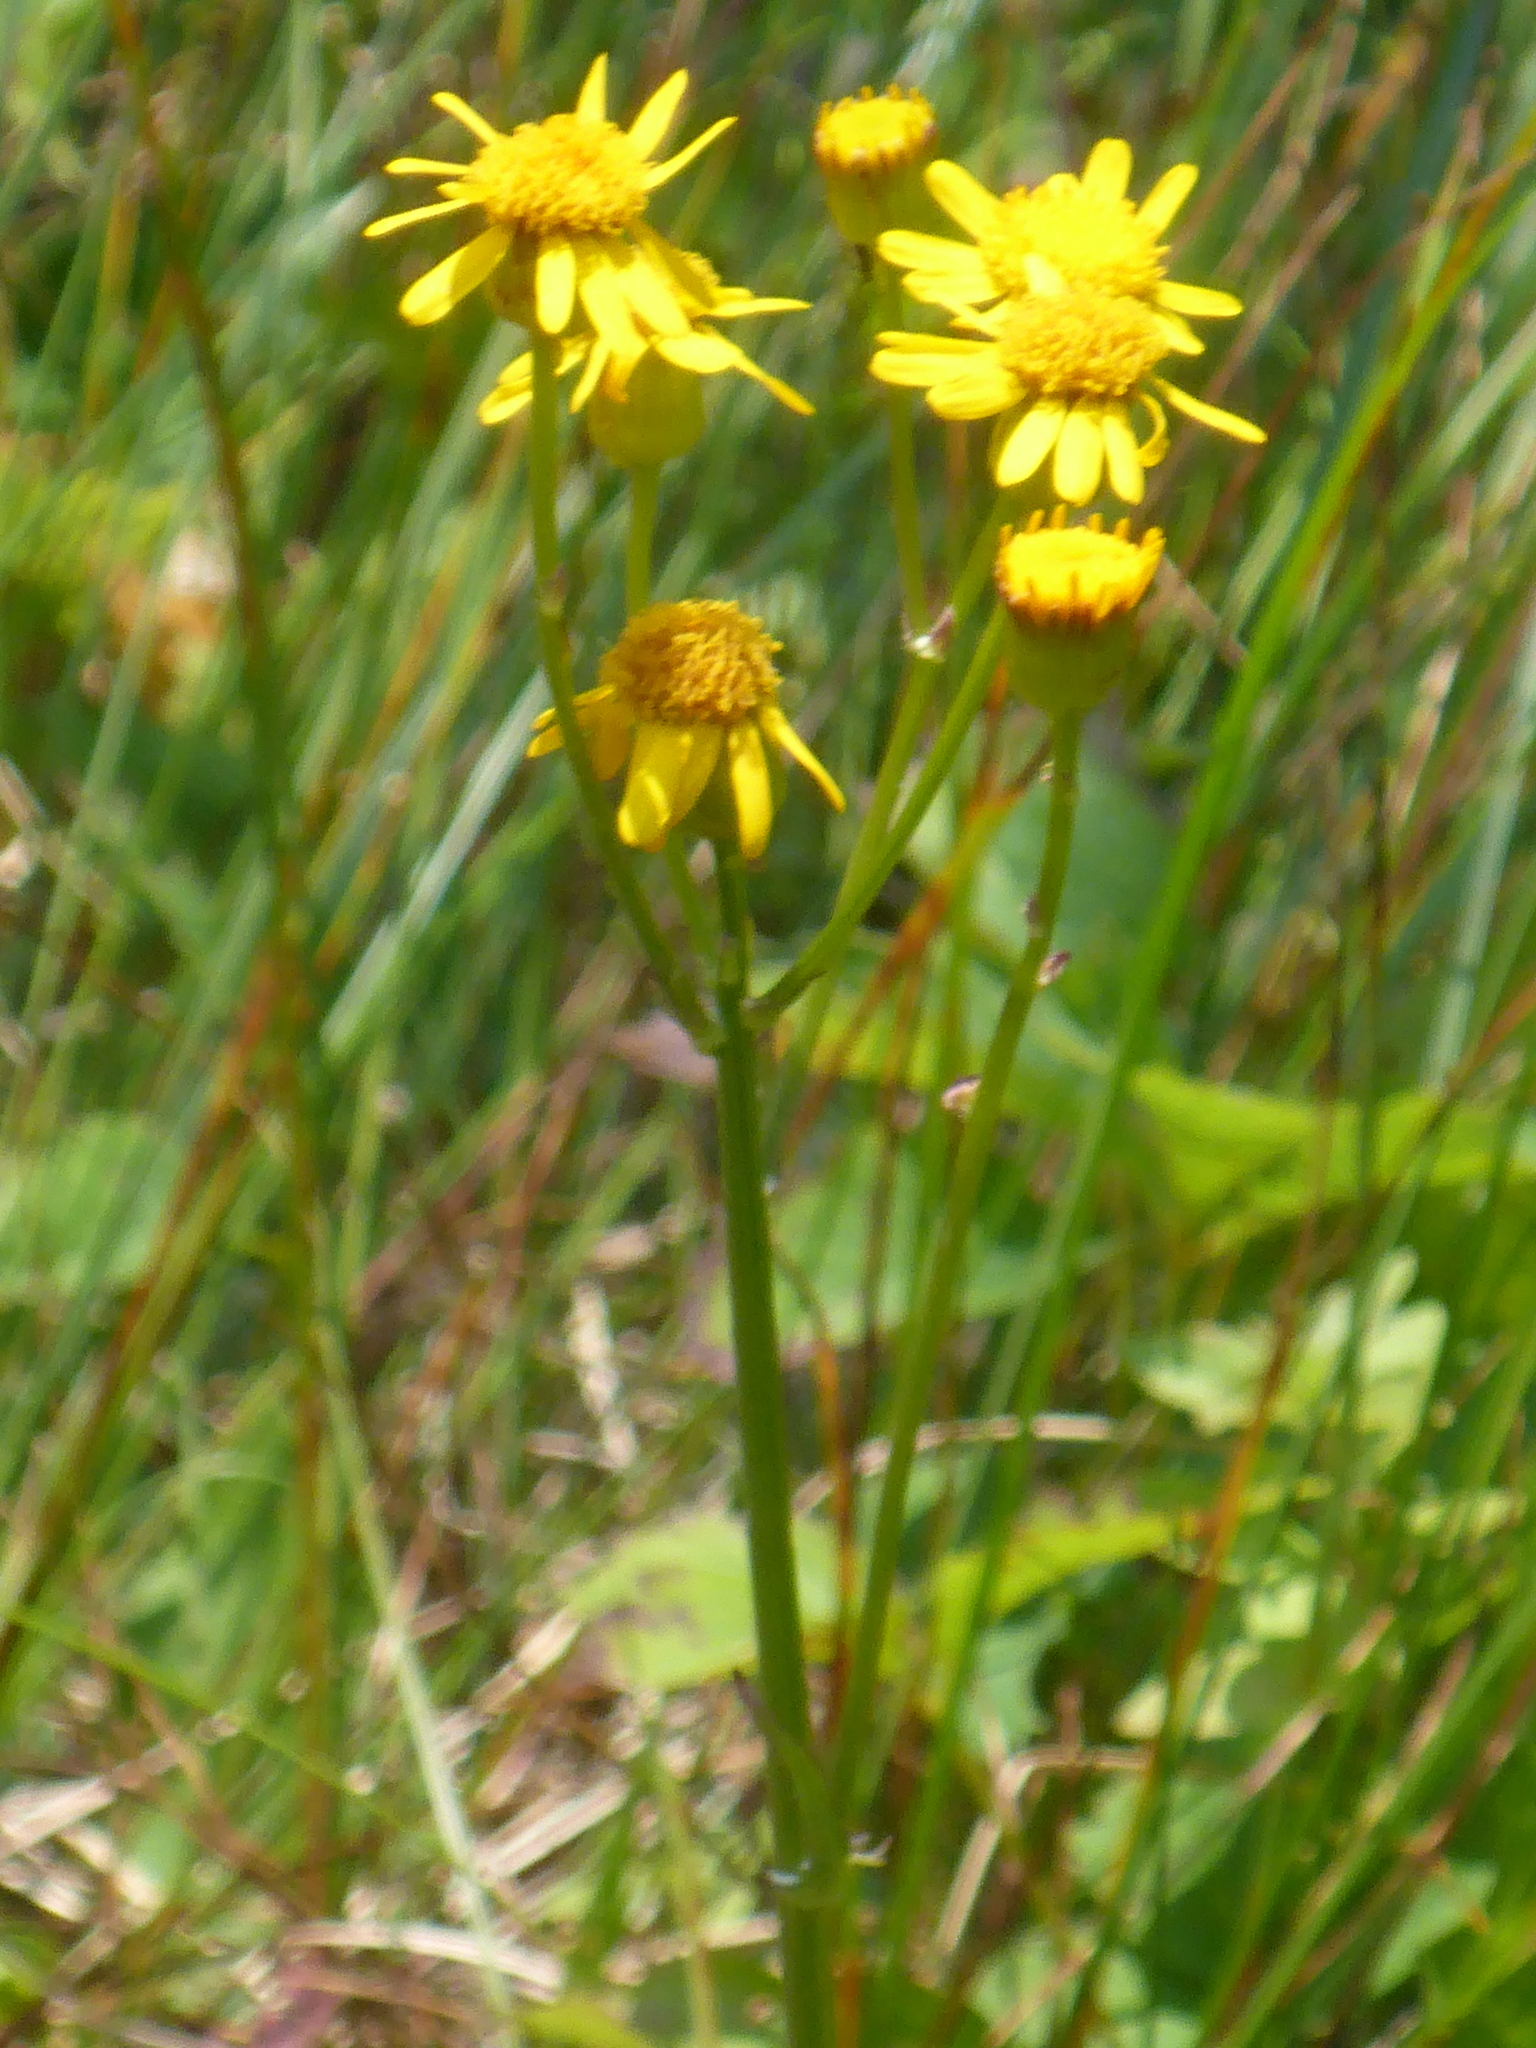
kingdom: Plantae
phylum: Tracheophyta
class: Magnoliopsida
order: Asterales
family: Asteraceae
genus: Packera
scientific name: Packera paupercula
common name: Balsam groundsel
